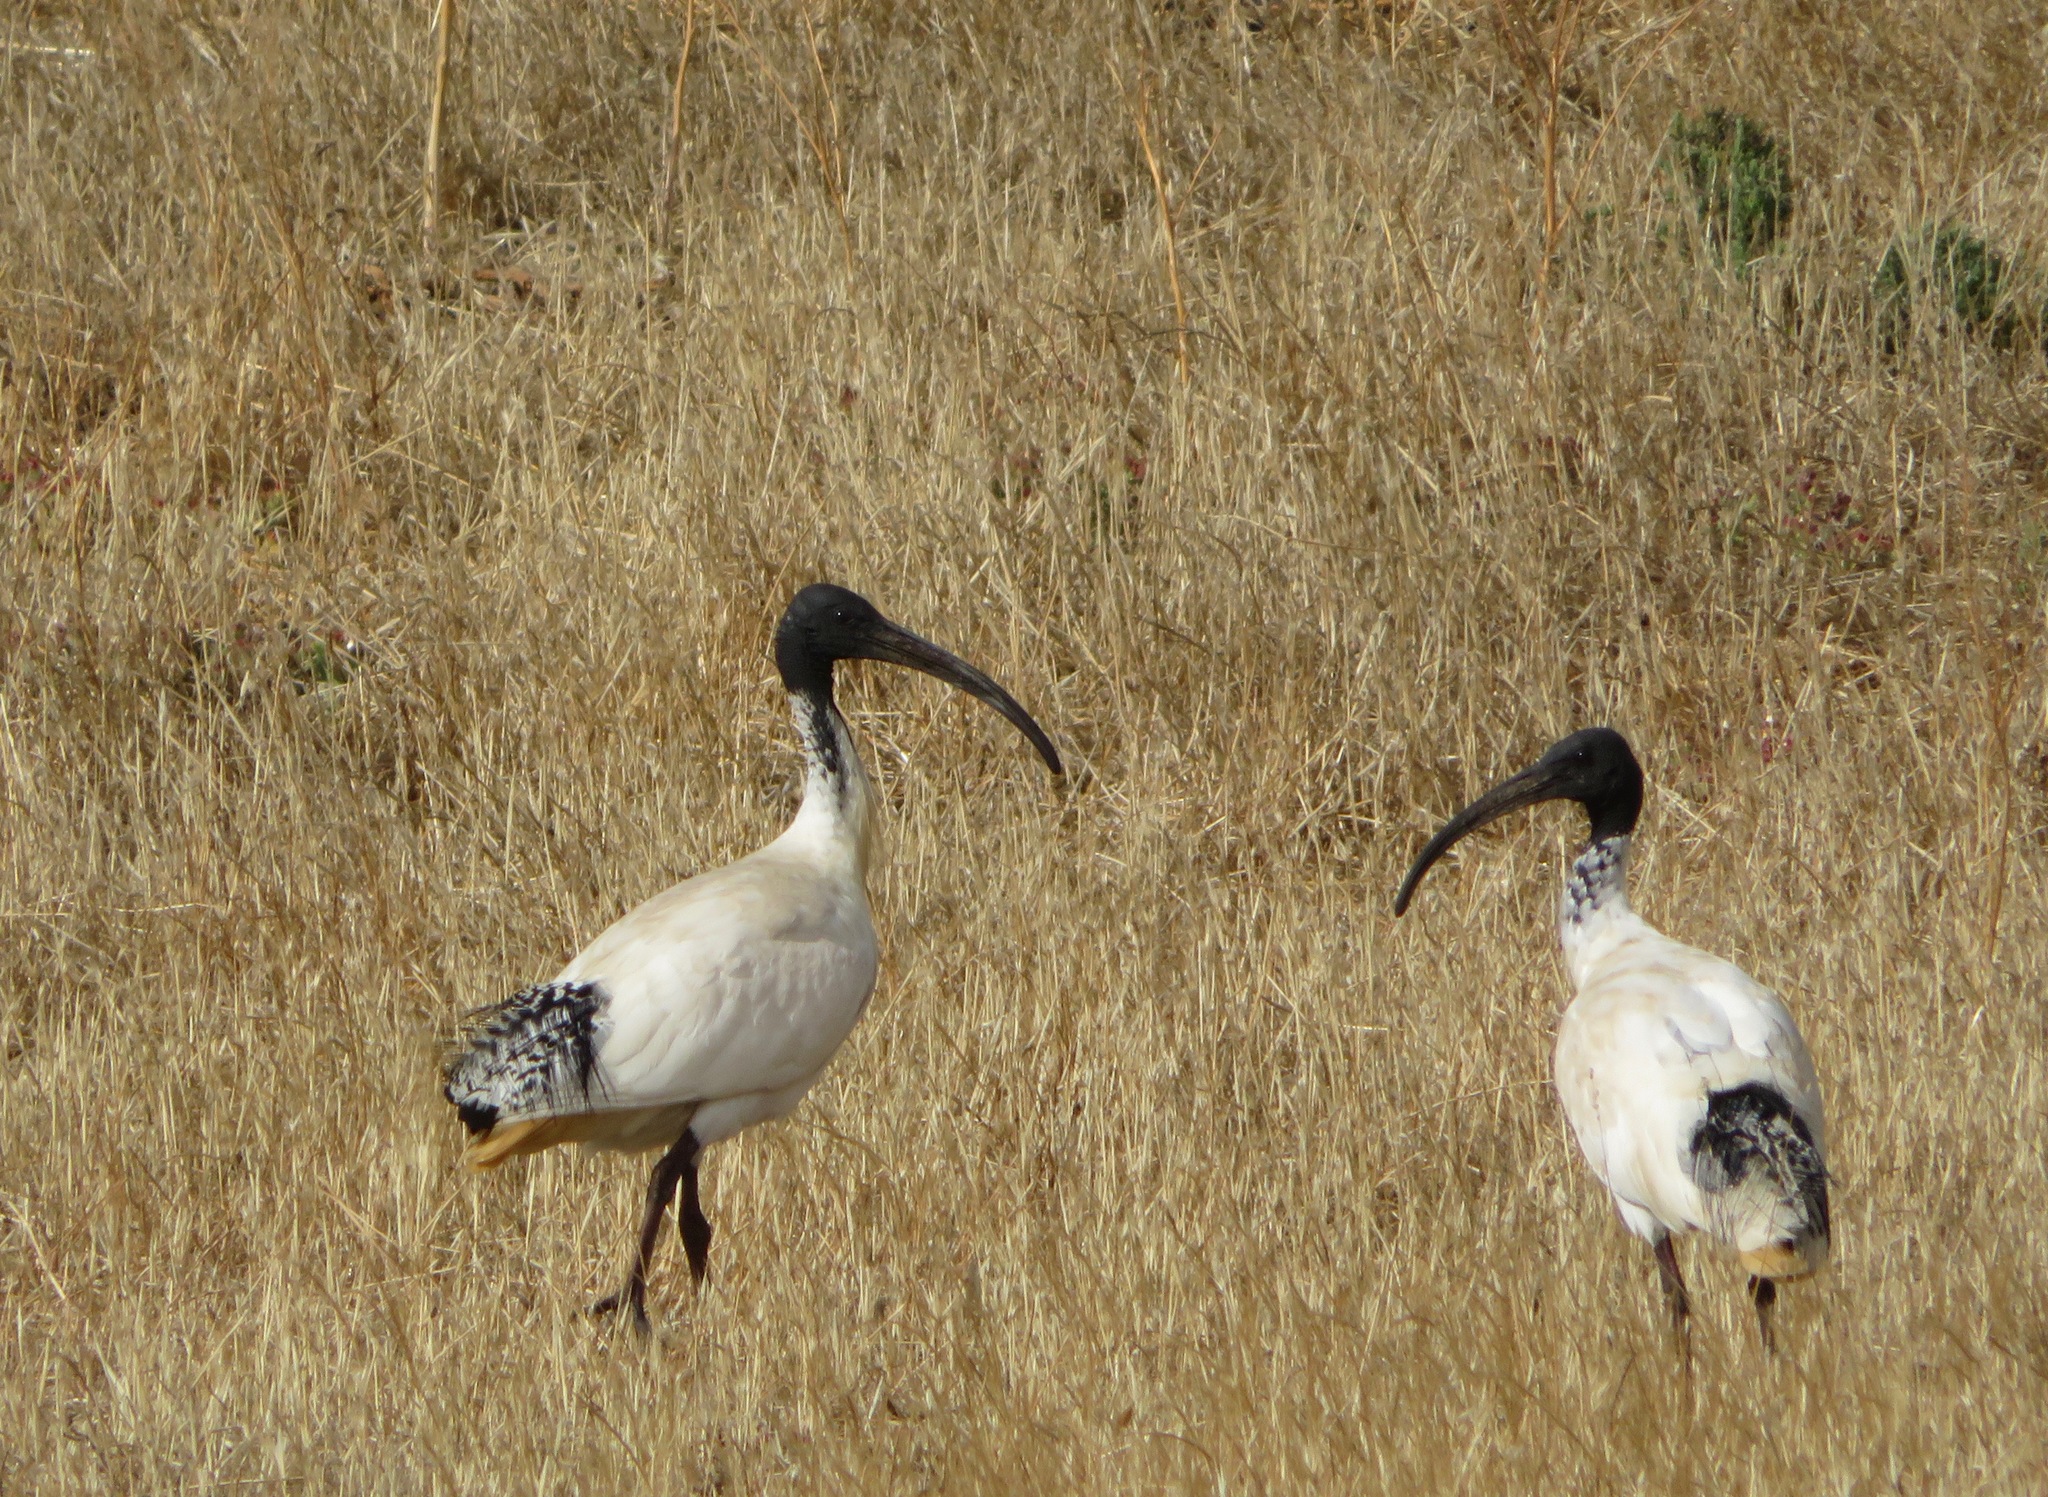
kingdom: Animalia
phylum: Chordata
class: Aves
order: Pelecaniformes
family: Threskiornithidae
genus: Threskiornis
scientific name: Threskiornis molucca
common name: Australian white ibis
